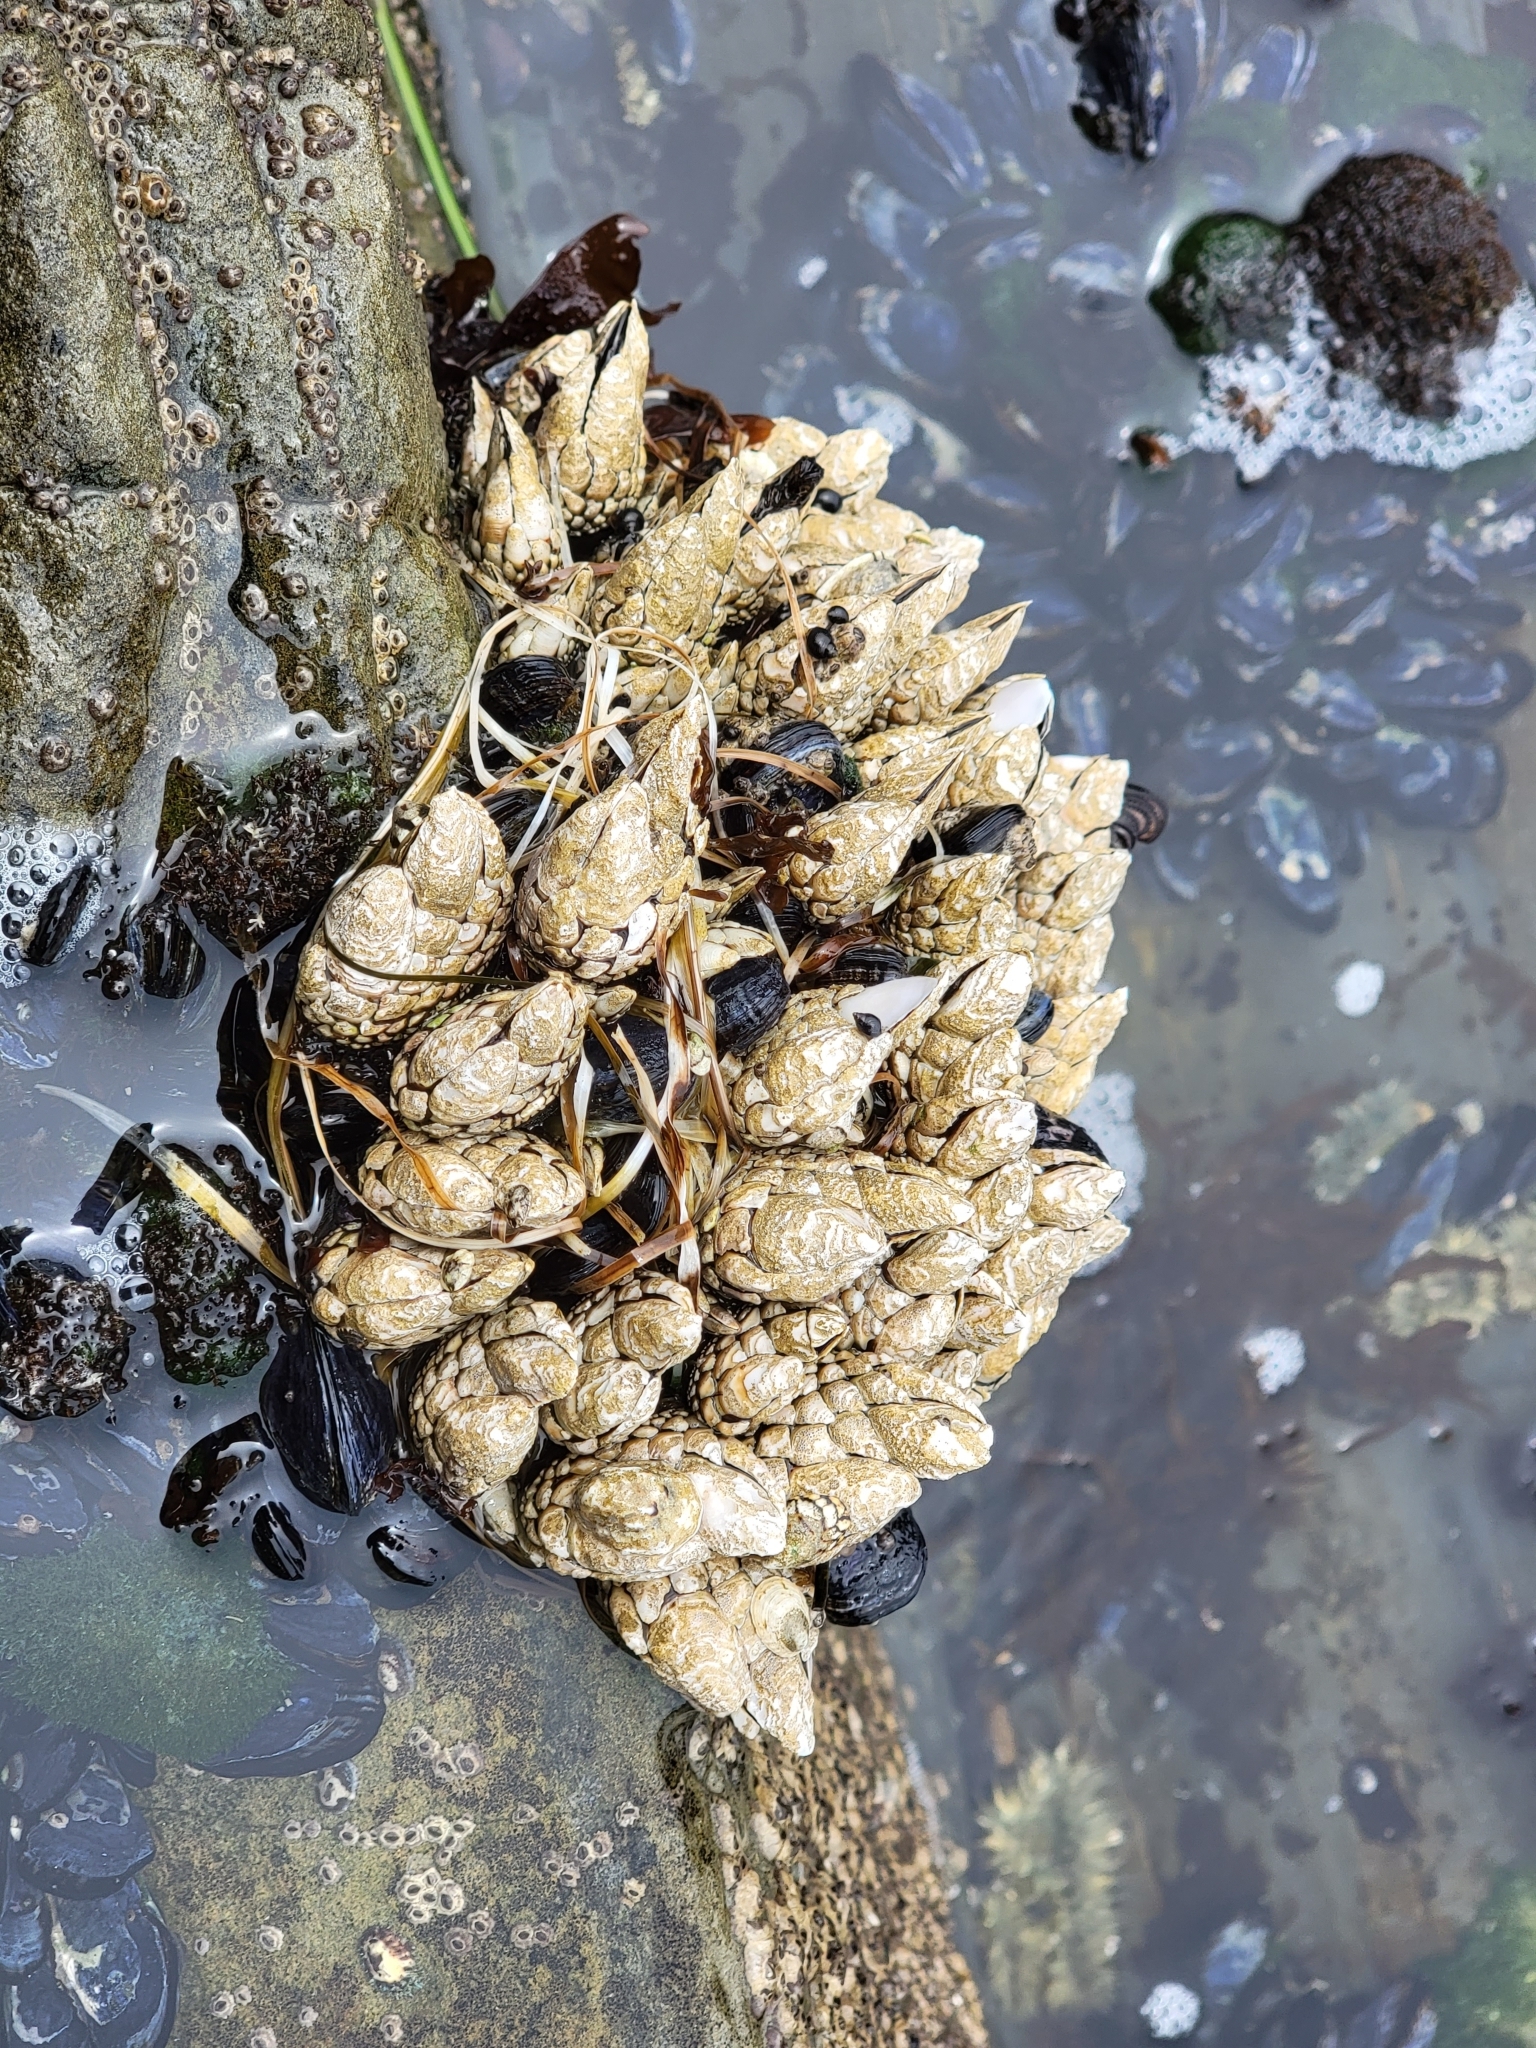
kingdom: Animalia
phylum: Arthropoda
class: Maxillopoda
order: Pedunculata
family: Pollicipedidae
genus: Pollicipes
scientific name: Pollicipes polymerus
